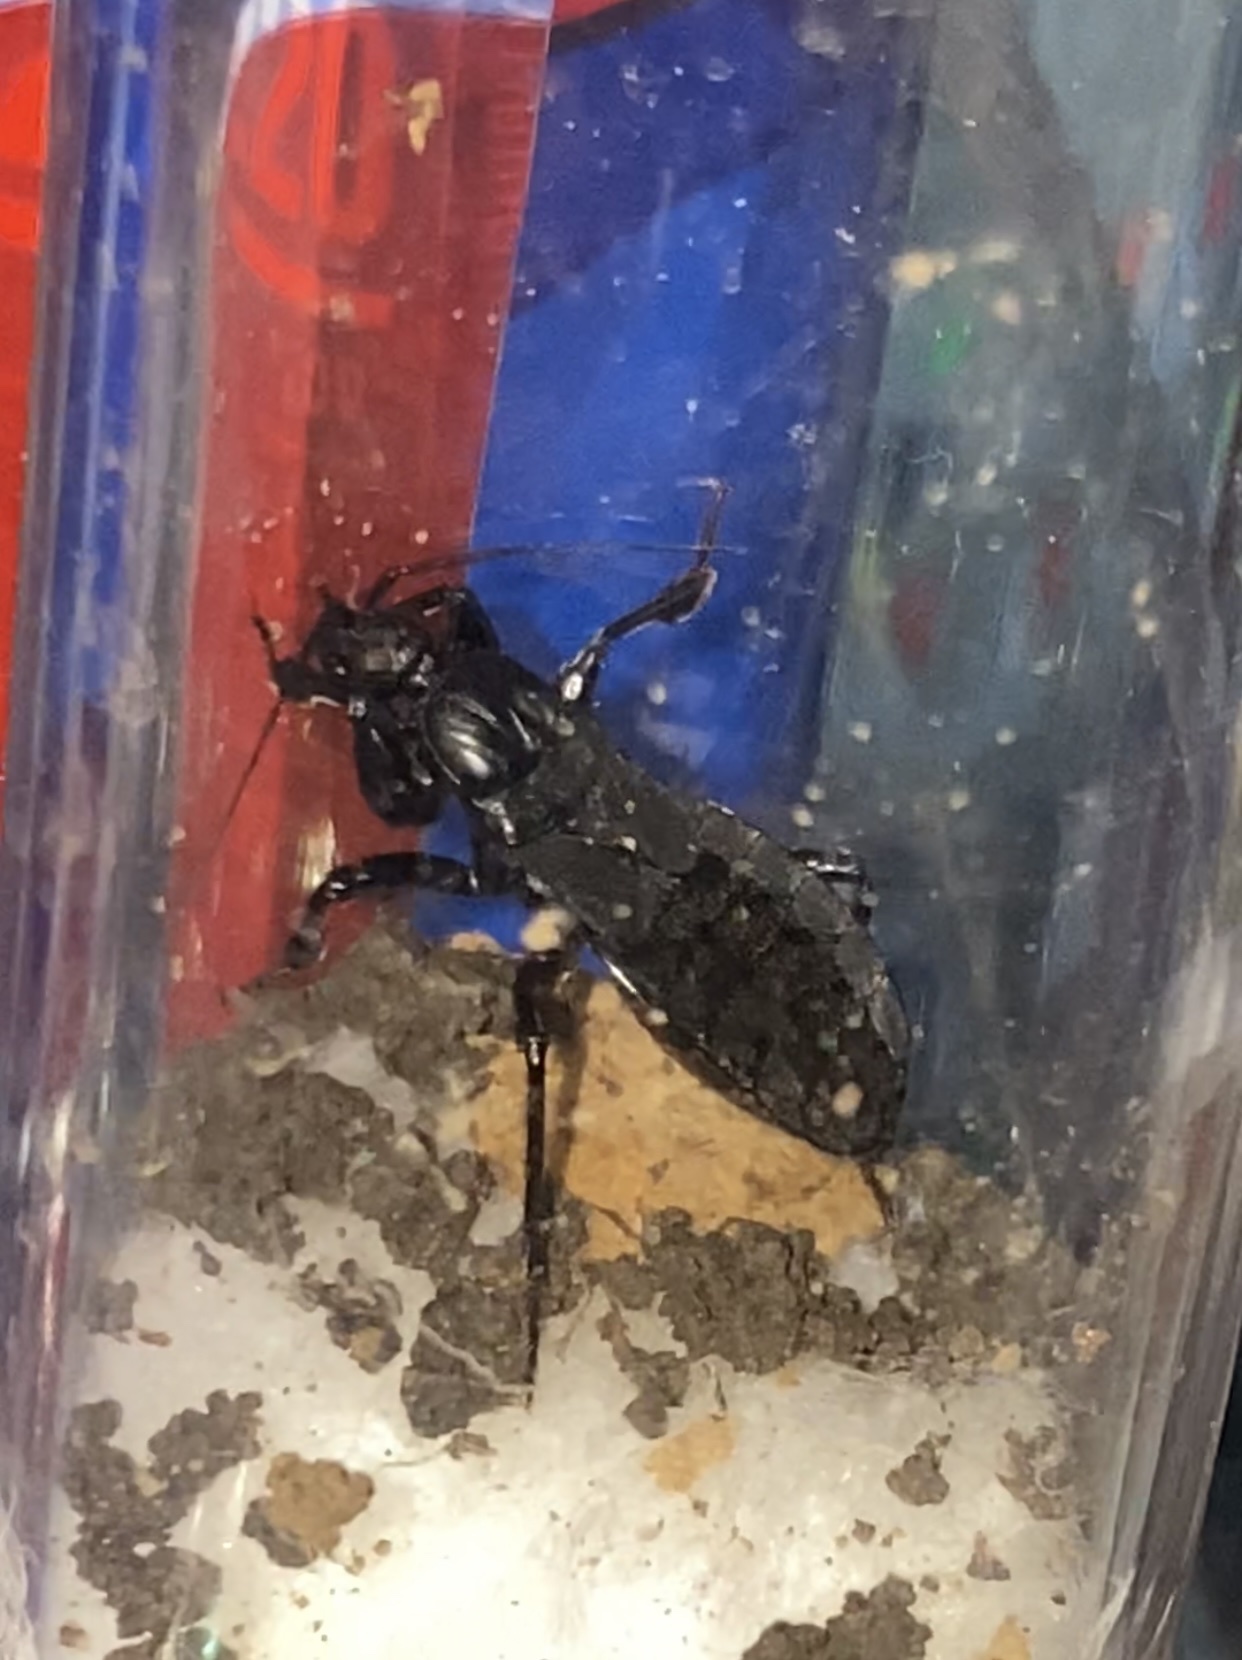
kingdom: Animalia
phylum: Arthropoda
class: Insecta
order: Hemiptera
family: Reduviidae
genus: Melanolestes
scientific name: Melanolestes picipes
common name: Assassin bug
